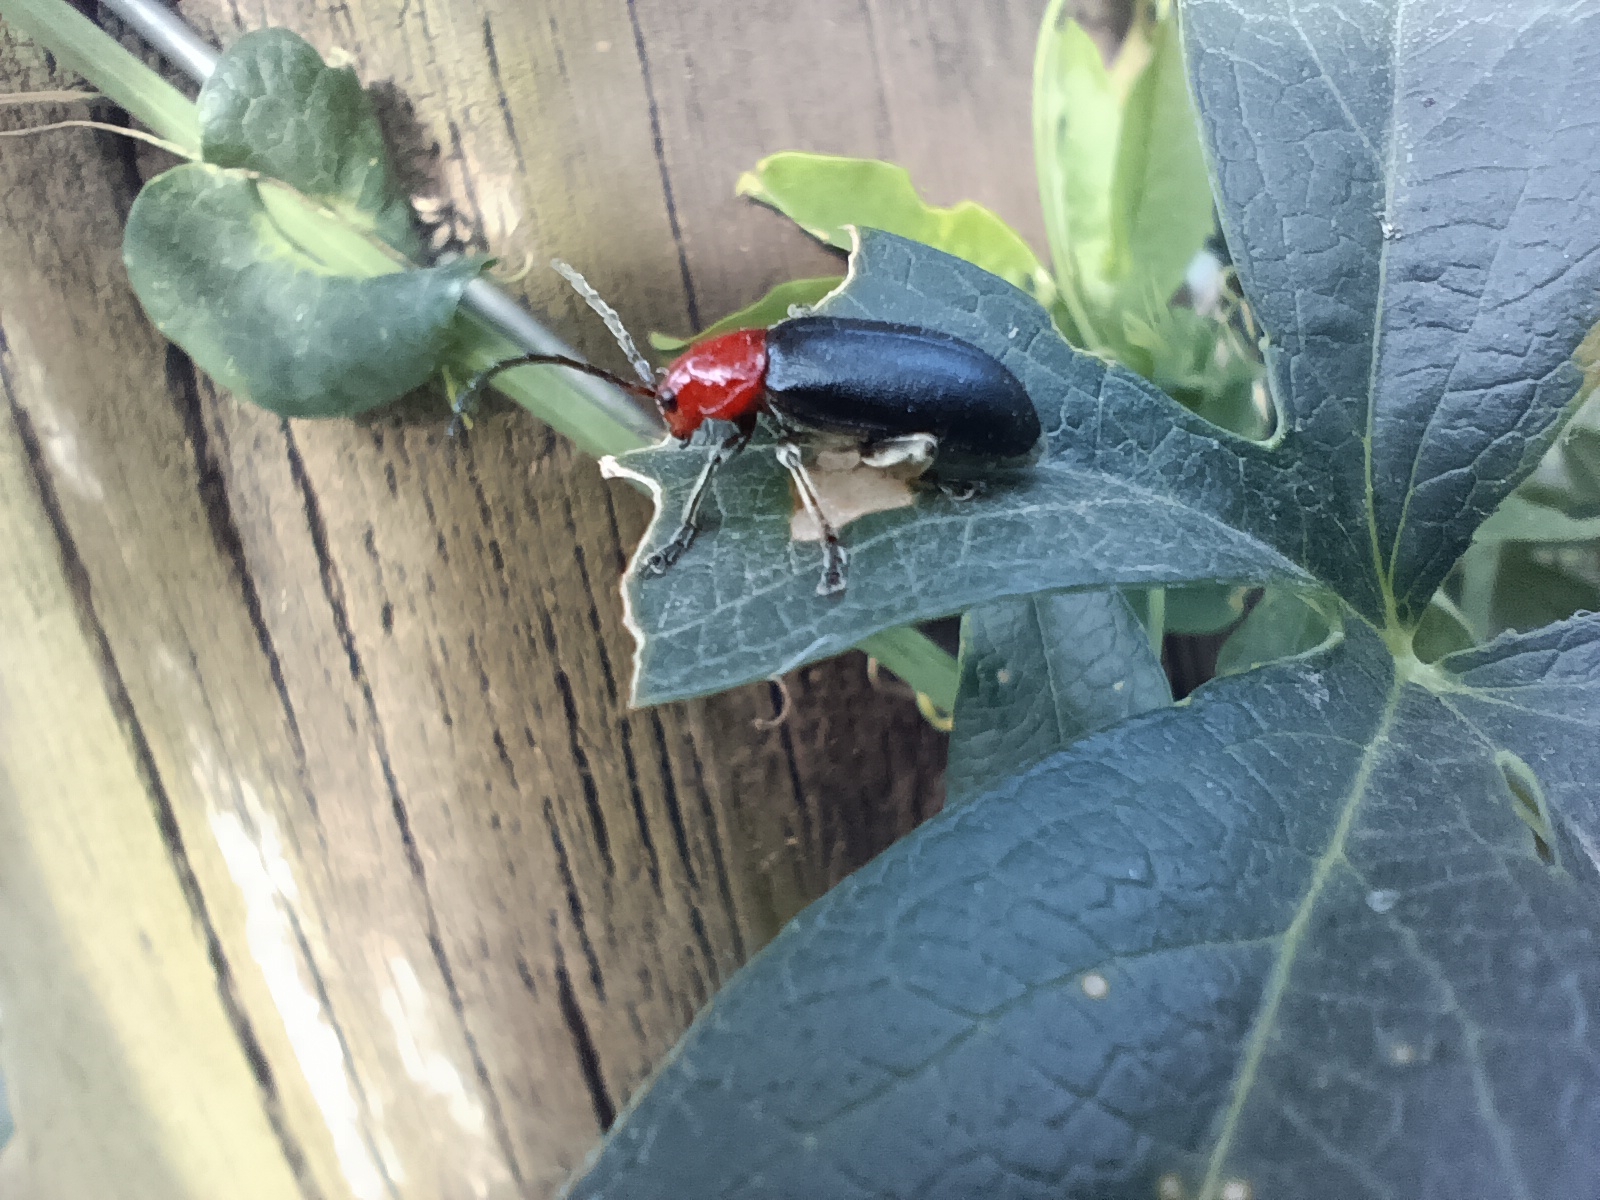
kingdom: Animalia
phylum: Arthropoda
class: Insecta
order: Coleoptera
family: Chrysomelidae
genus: Cacoscelis
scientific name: Cacoscelis
